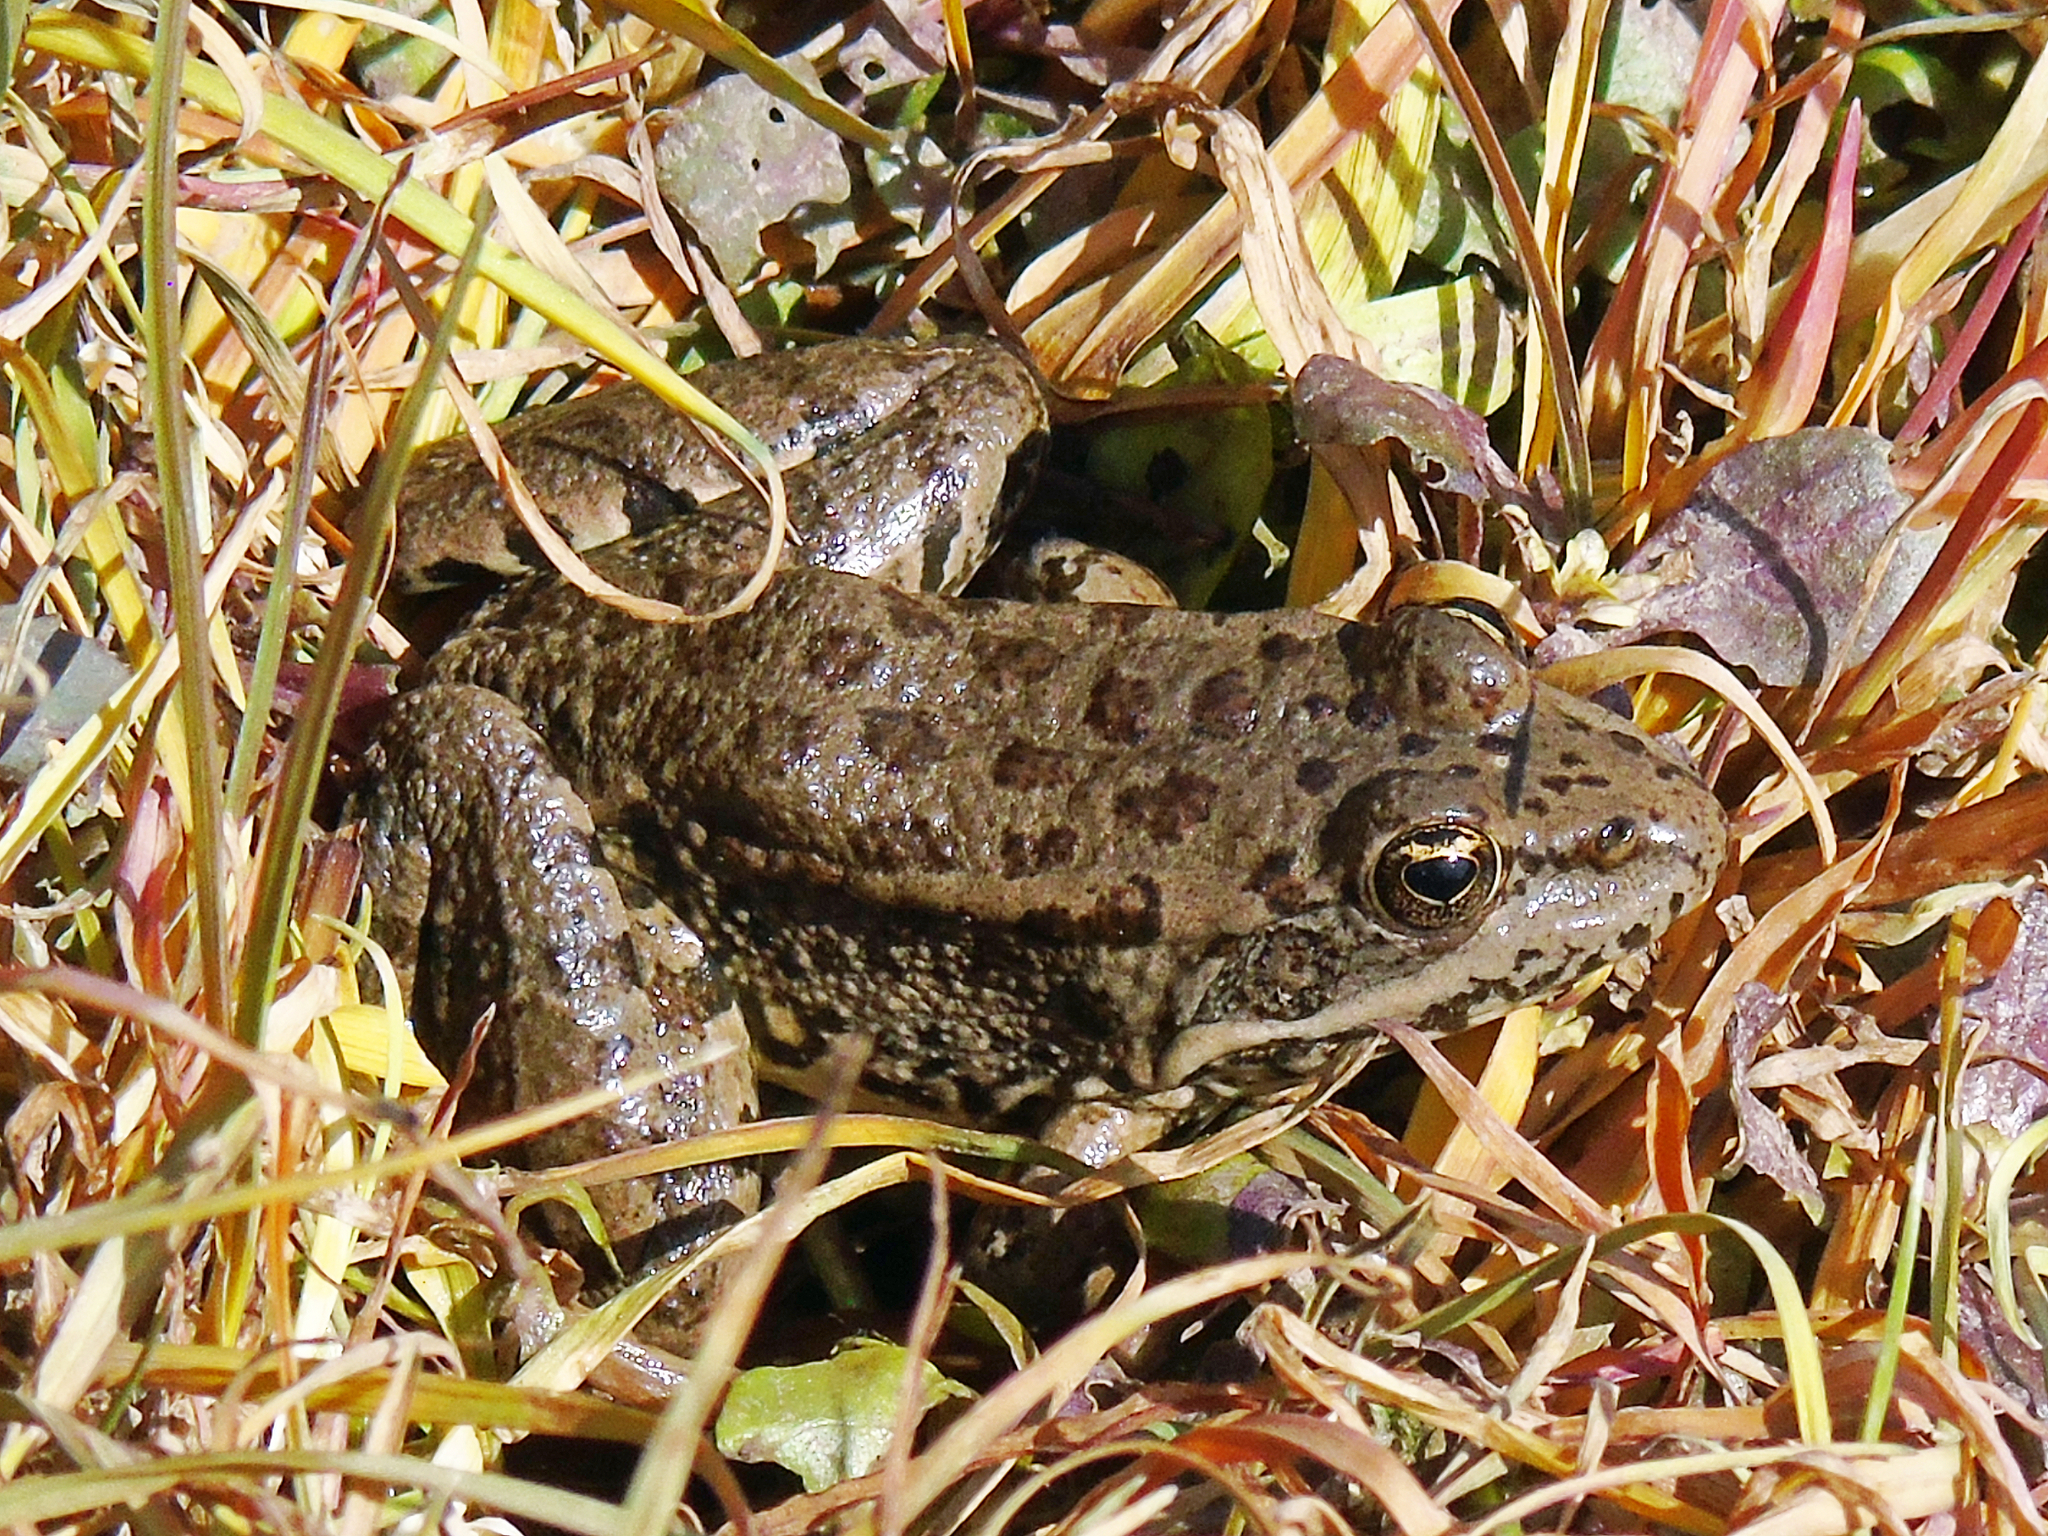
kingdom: Animalia
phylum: Chordata
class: Amphibia
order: Anura
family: Ranidae
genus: Pelophylax
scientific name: Pelophylax ridibundus
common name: Marsh frog
